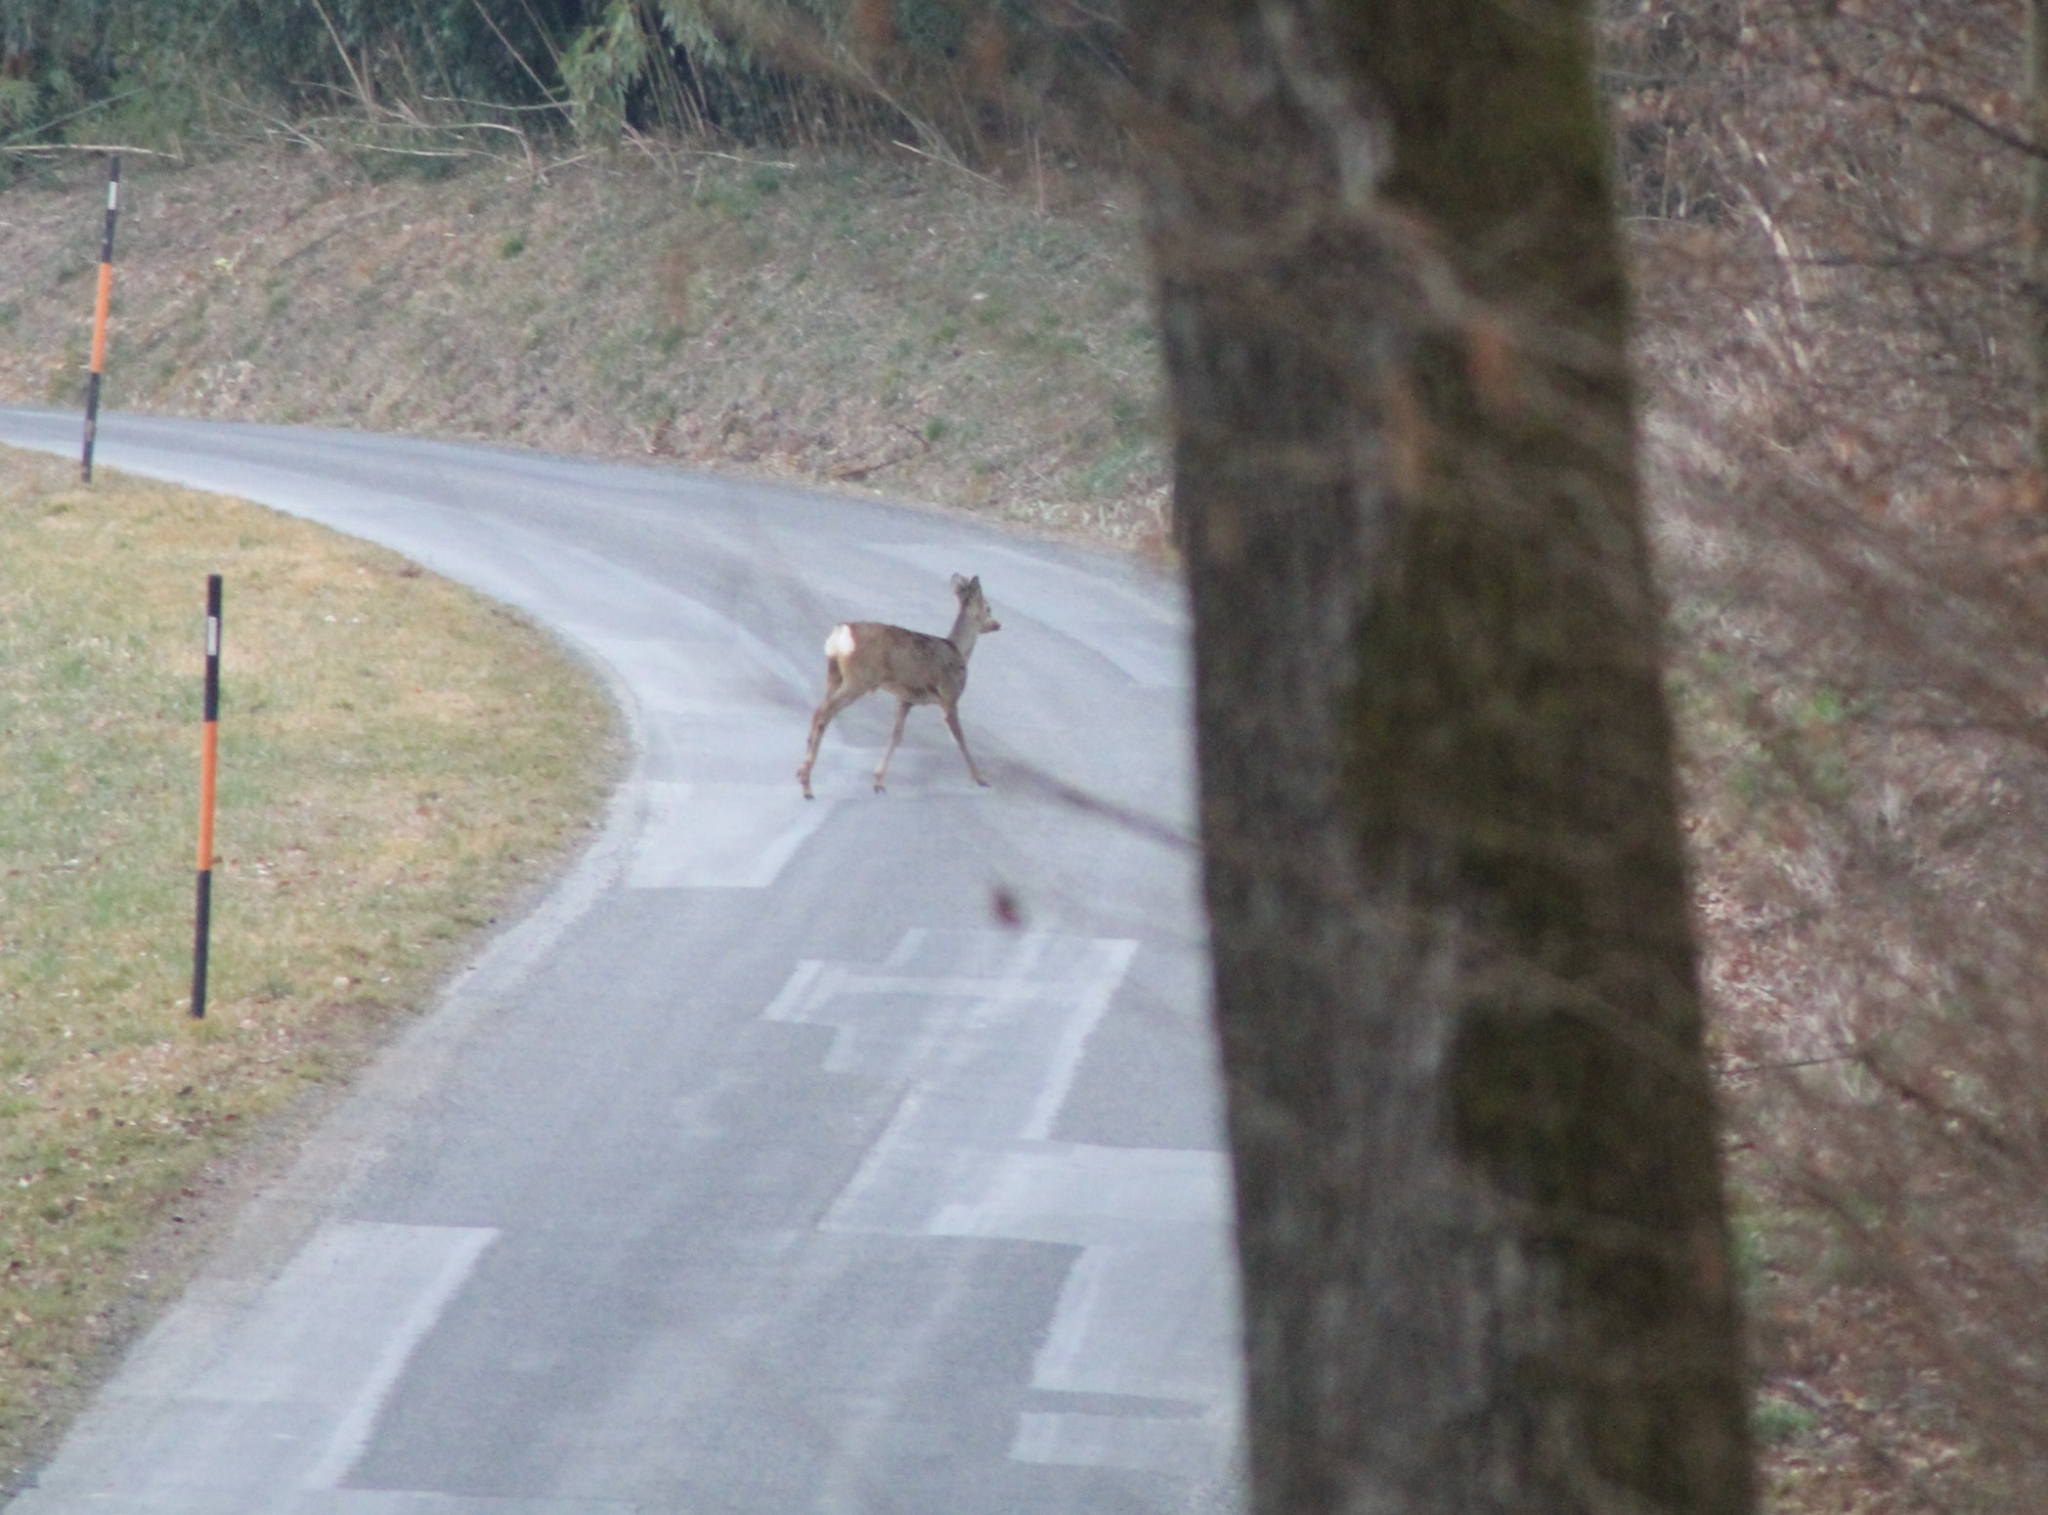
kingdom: Animalia
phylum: Chordata
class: Mammalia
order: Artiodactyla
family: Cervidae
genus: Capreolus
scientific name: Capreolus capreolus
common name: Western roe deer
